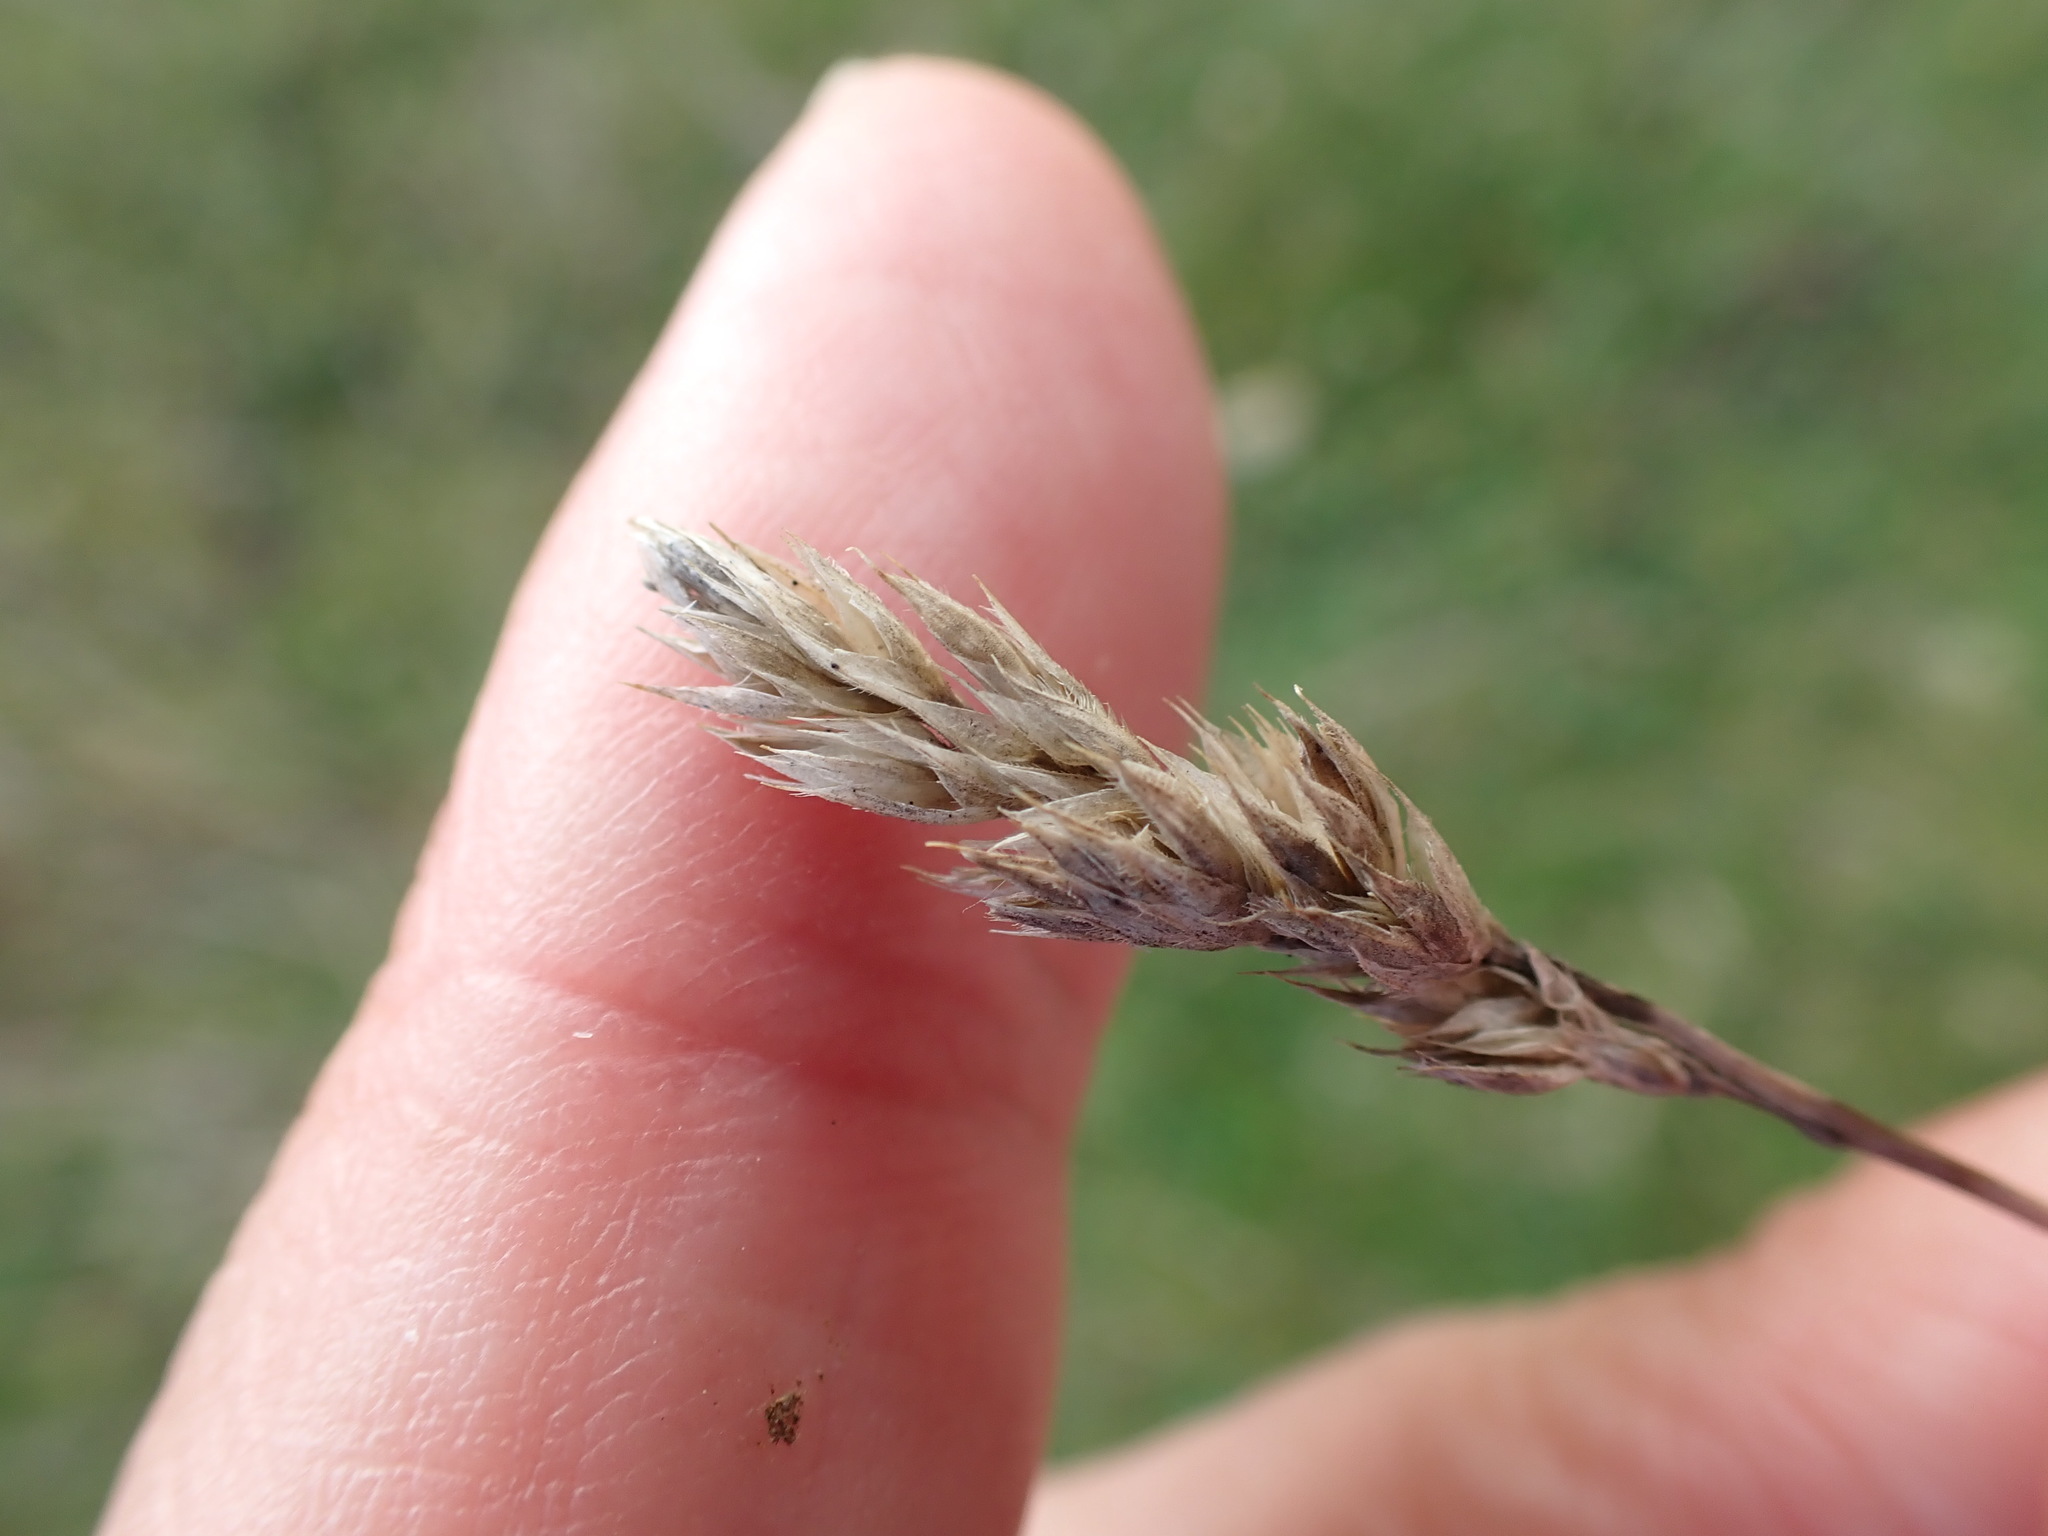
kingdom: Plantae
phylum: Tracheophyta
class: Liliopsida
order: Poales
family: Poaceae
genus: Dactylis
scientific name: Dactylis glomerata
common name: Orchardgrass
